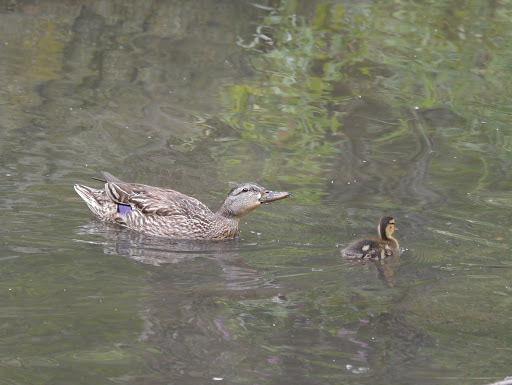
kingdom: Animalia
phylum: Chordata
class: Aves
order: Anseriformes
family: Anatidae
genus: Anas
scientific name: Anas platyrhynchos
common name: Mallard
